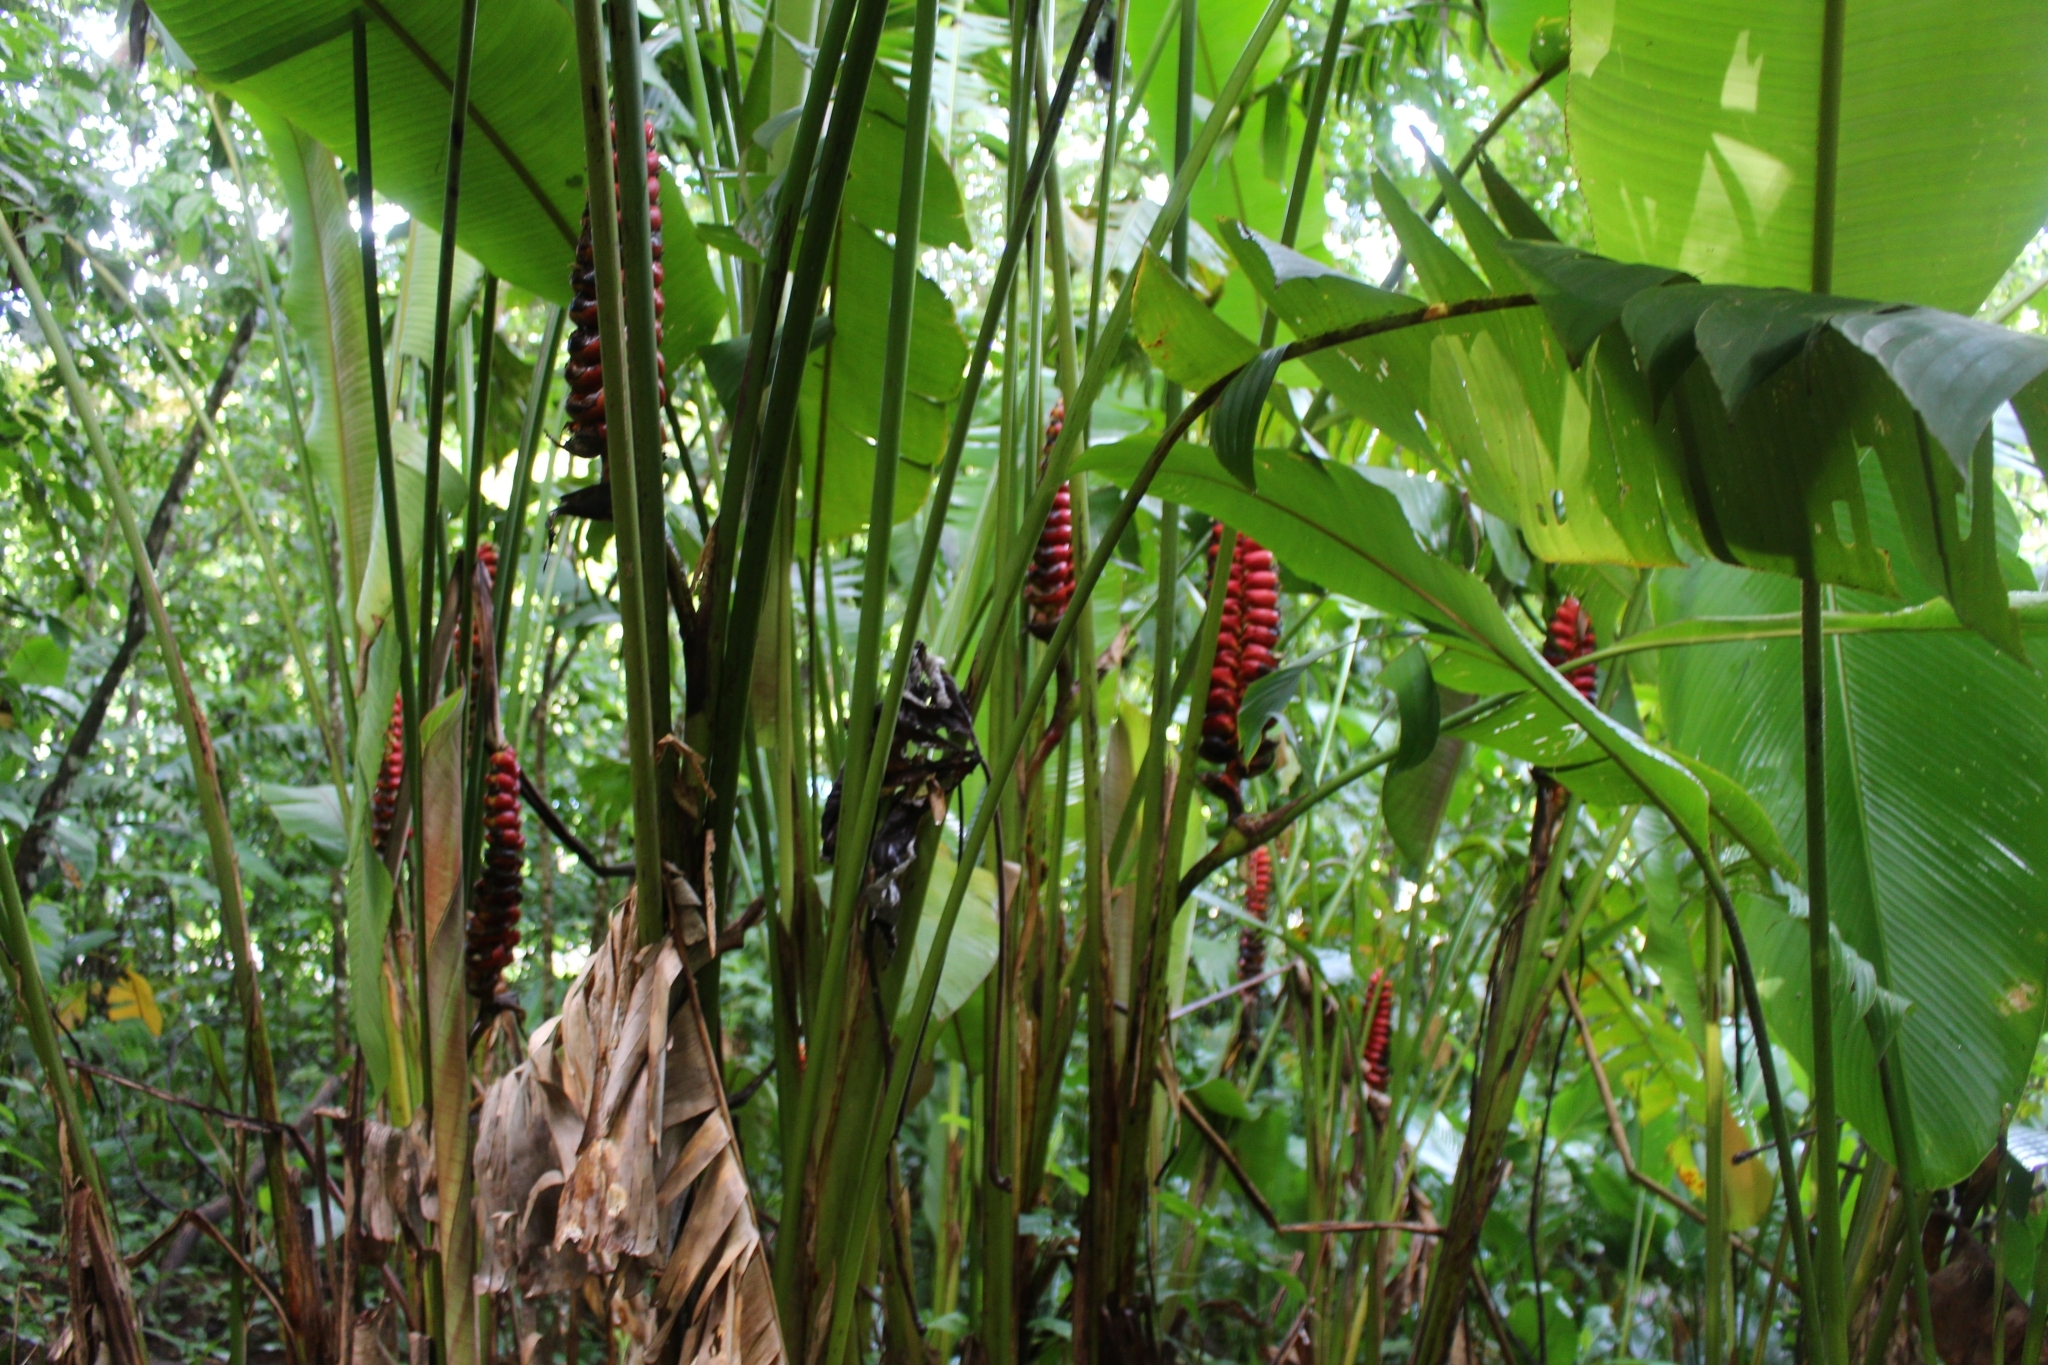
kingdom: Plantae
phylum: Tracheophyta
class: Liliopsida
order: Zingiberales
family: Heliconiaceae
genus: Heliconia
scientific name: Heliconia imbricata
